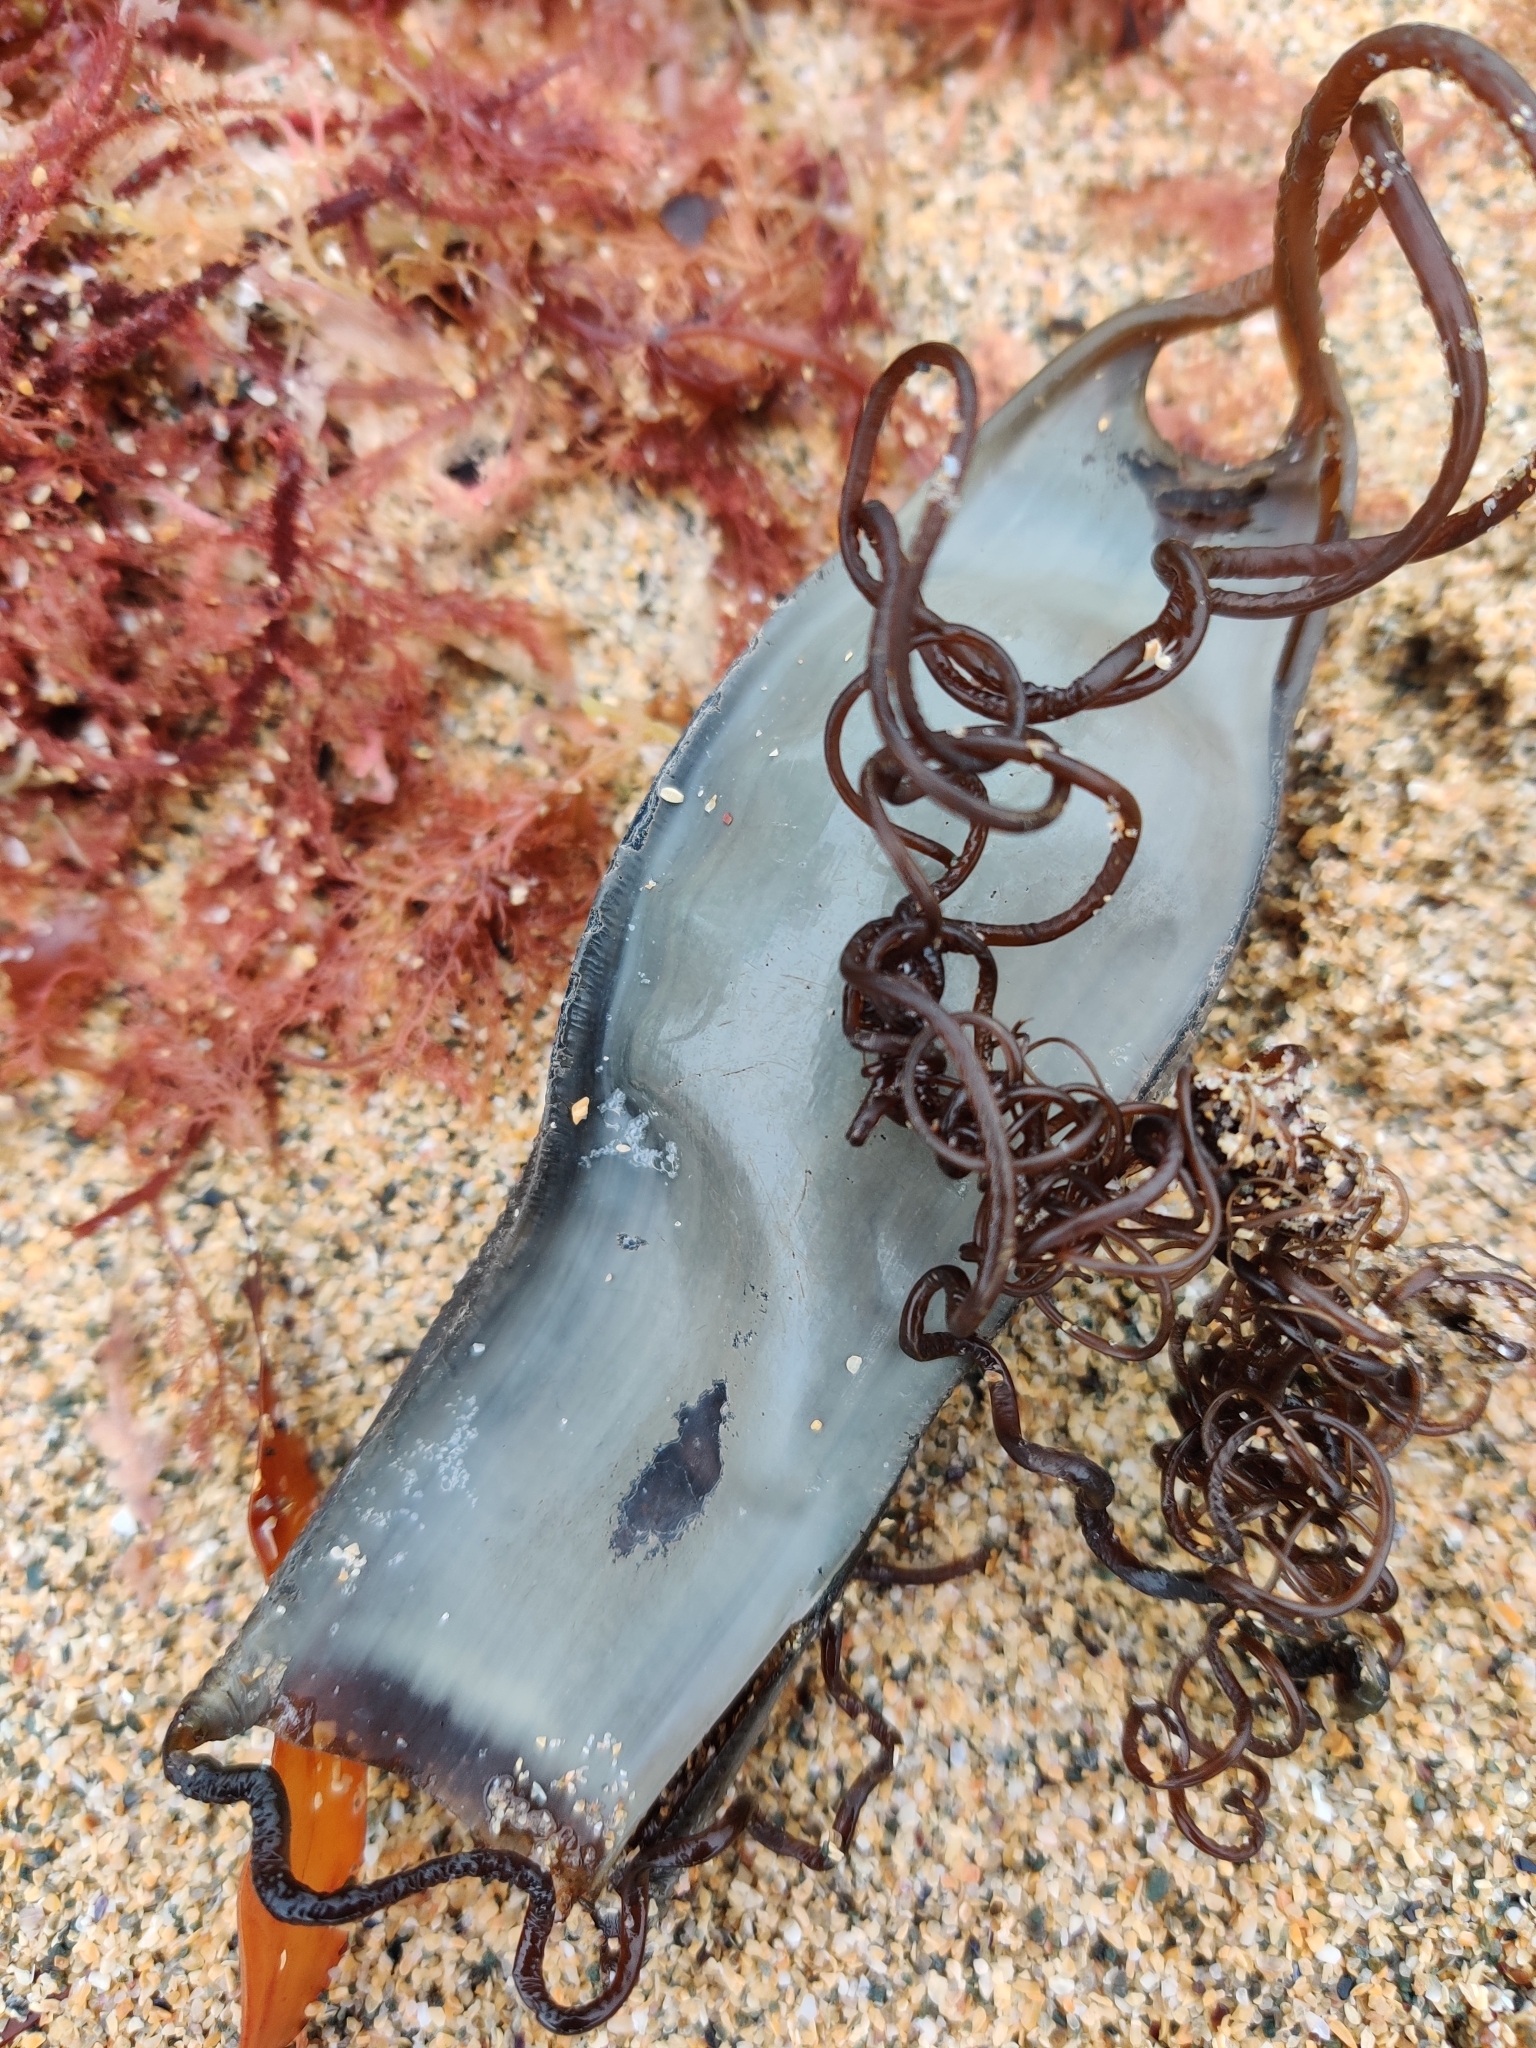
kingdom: Animalia
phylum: Chordata
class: Elasmobranchii
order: Carcharhiniformes
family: Scyliorhinidae
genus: Scyliorhinus
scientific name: Scyliorhinus stellaris
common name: Nursehound
